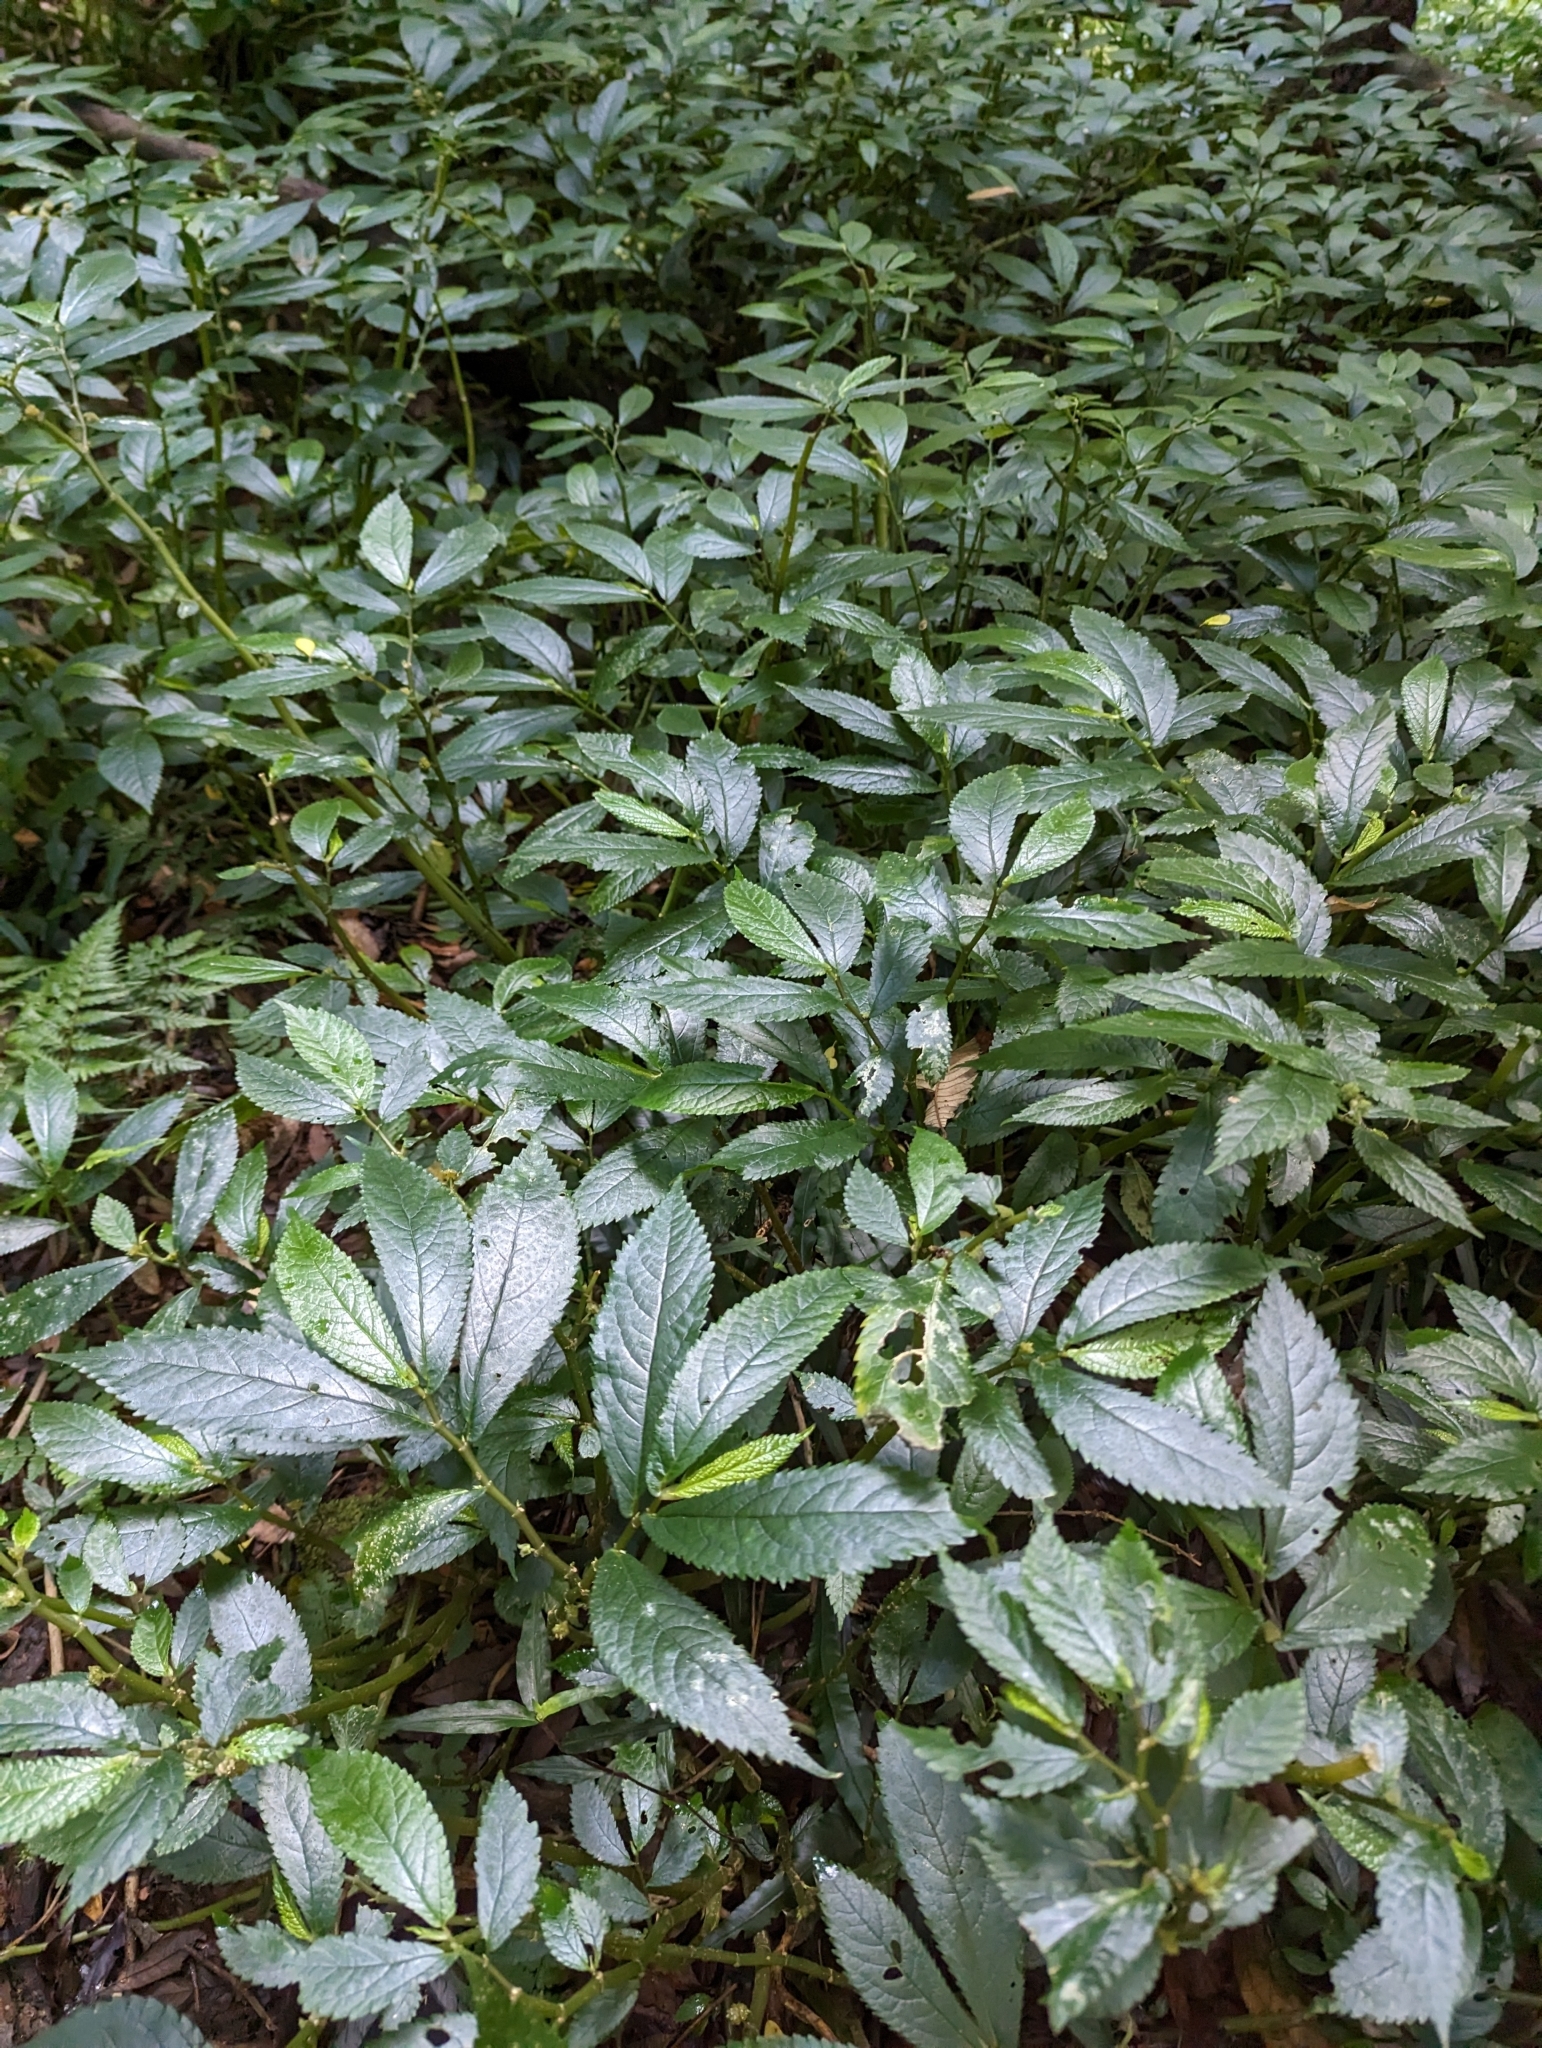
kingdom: Plantae
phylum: Tracheophyta
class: Magnoliopsida
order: Rosales
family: Urticaceae
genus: Elatostema
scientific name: Elatostema reticulatum
